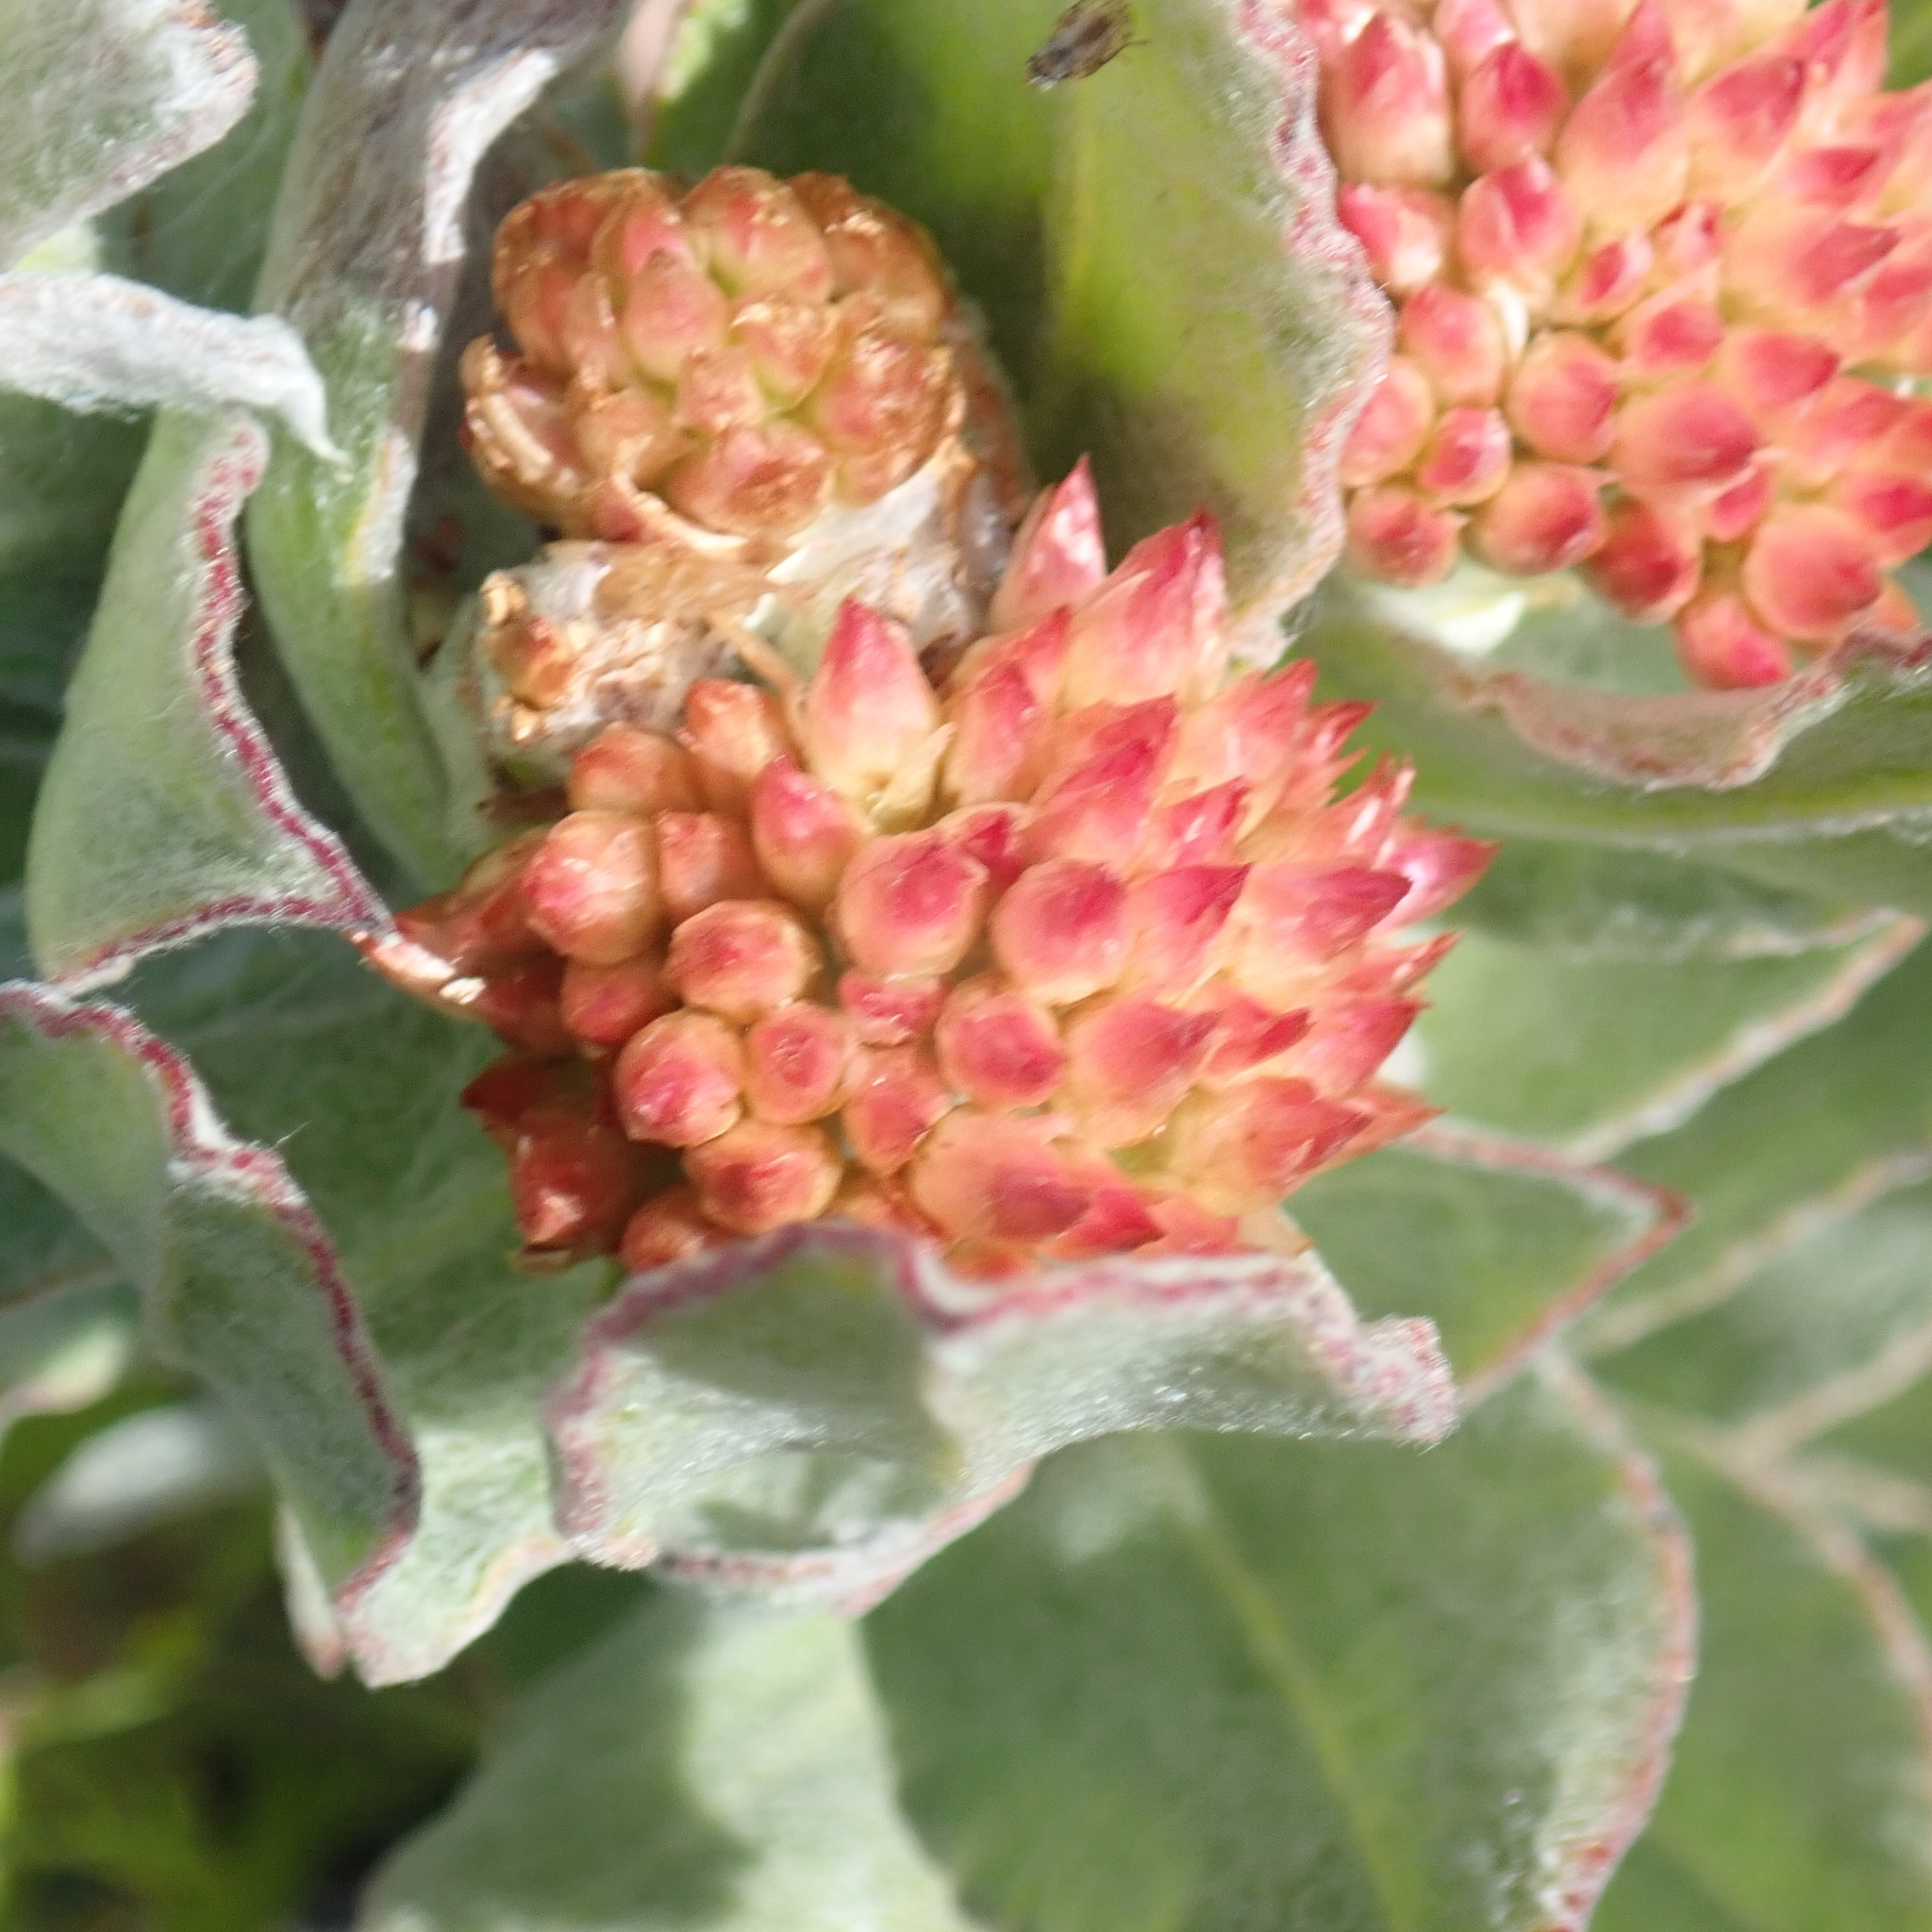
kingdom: Plantae
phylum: Tracheophyta
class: Magnoliopsida
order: Asterales
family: Asteraceae
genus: Syncarpha
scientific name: Syncarpha milleflora
